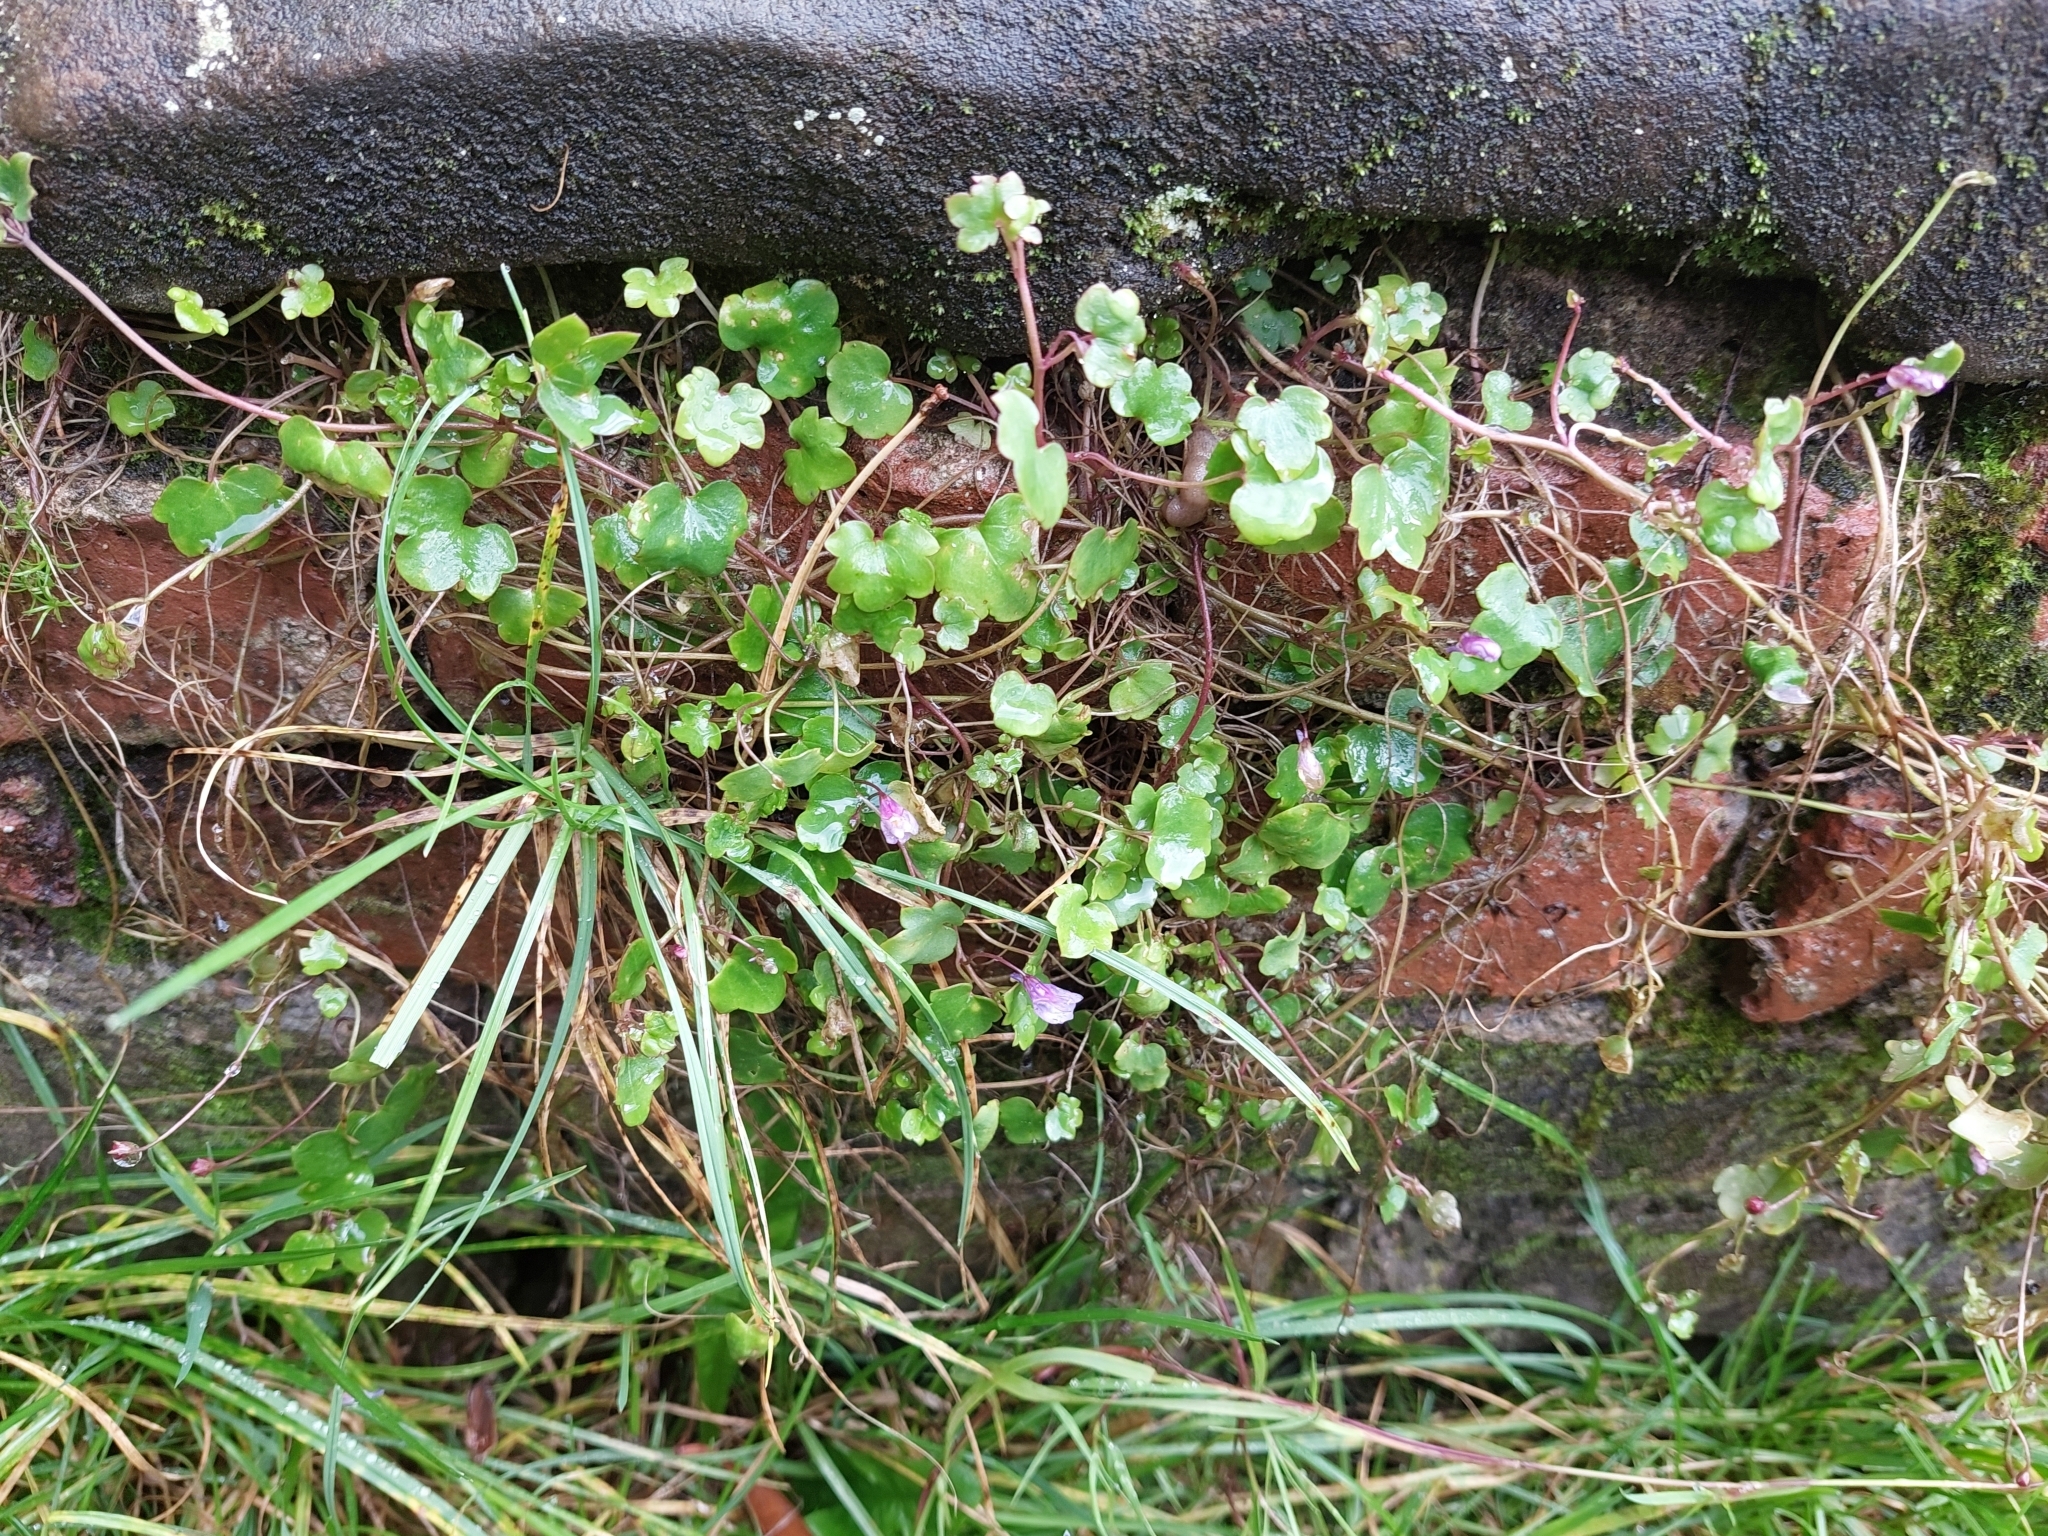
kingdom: Plantae
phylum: Tracheophyta
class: Magnoliopsida
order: Lamiales
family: Plantaginaceae
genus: Cymbalaria
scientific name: Cymbalaria muralis
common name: Ivy-leaved toadflax
